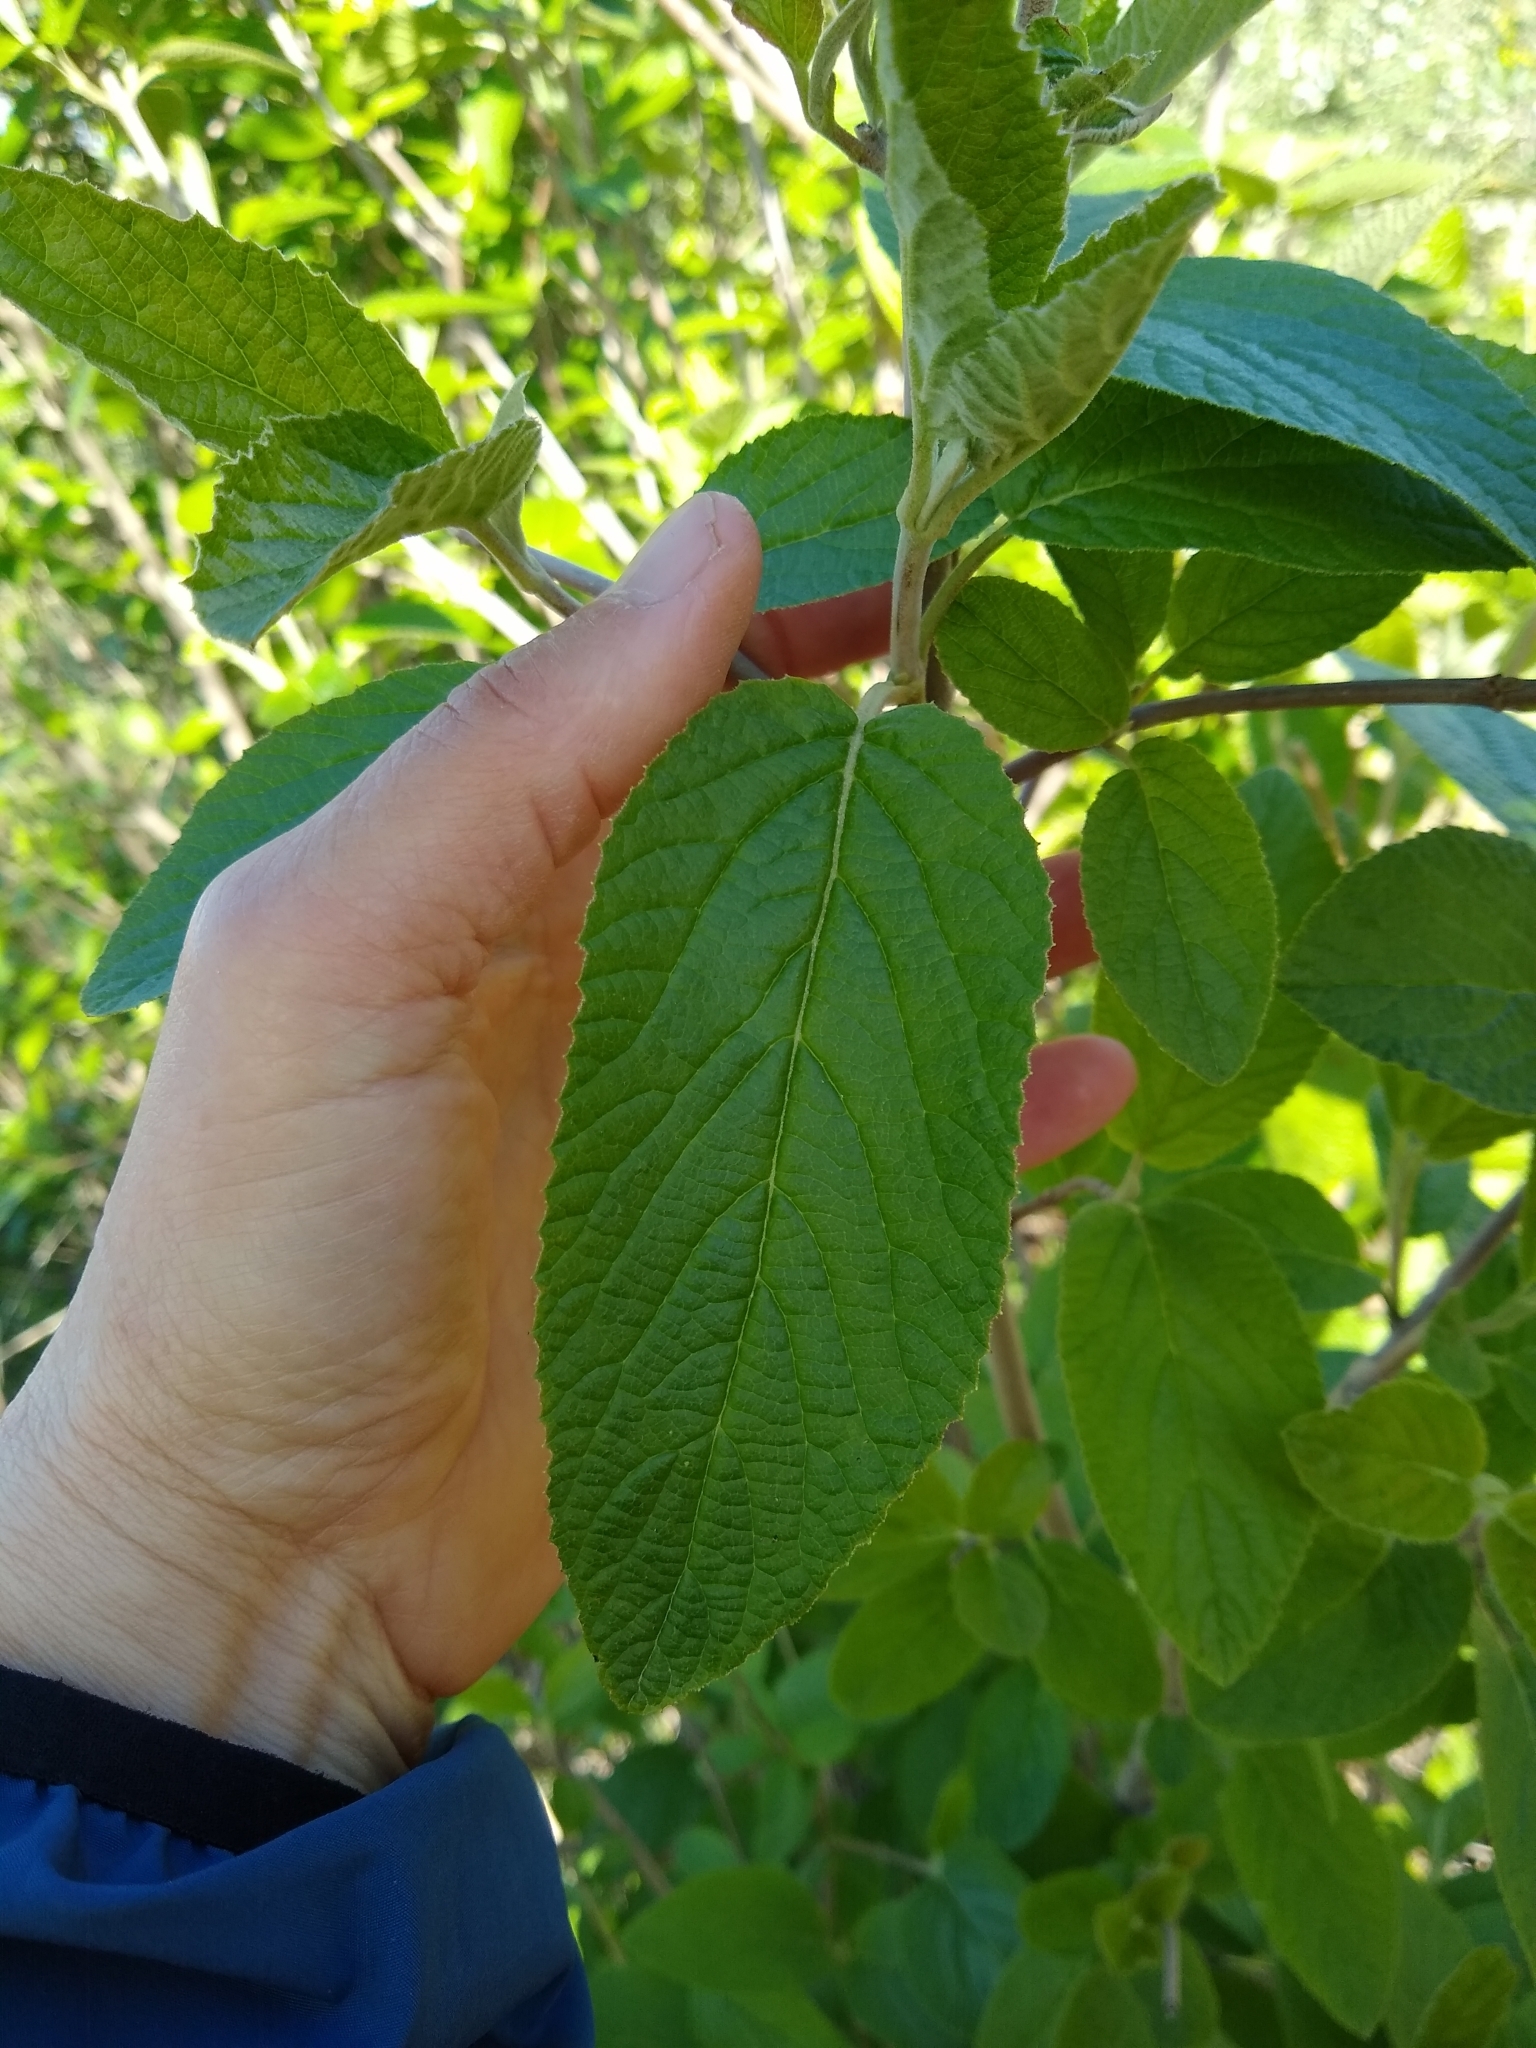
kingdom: Plantae
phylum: Tracheophyta
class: Magnoliopsida
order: Dipsacales
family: Viburnaceae
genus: Viburnum
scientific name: Viburnum prunifolium
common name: Black haw
